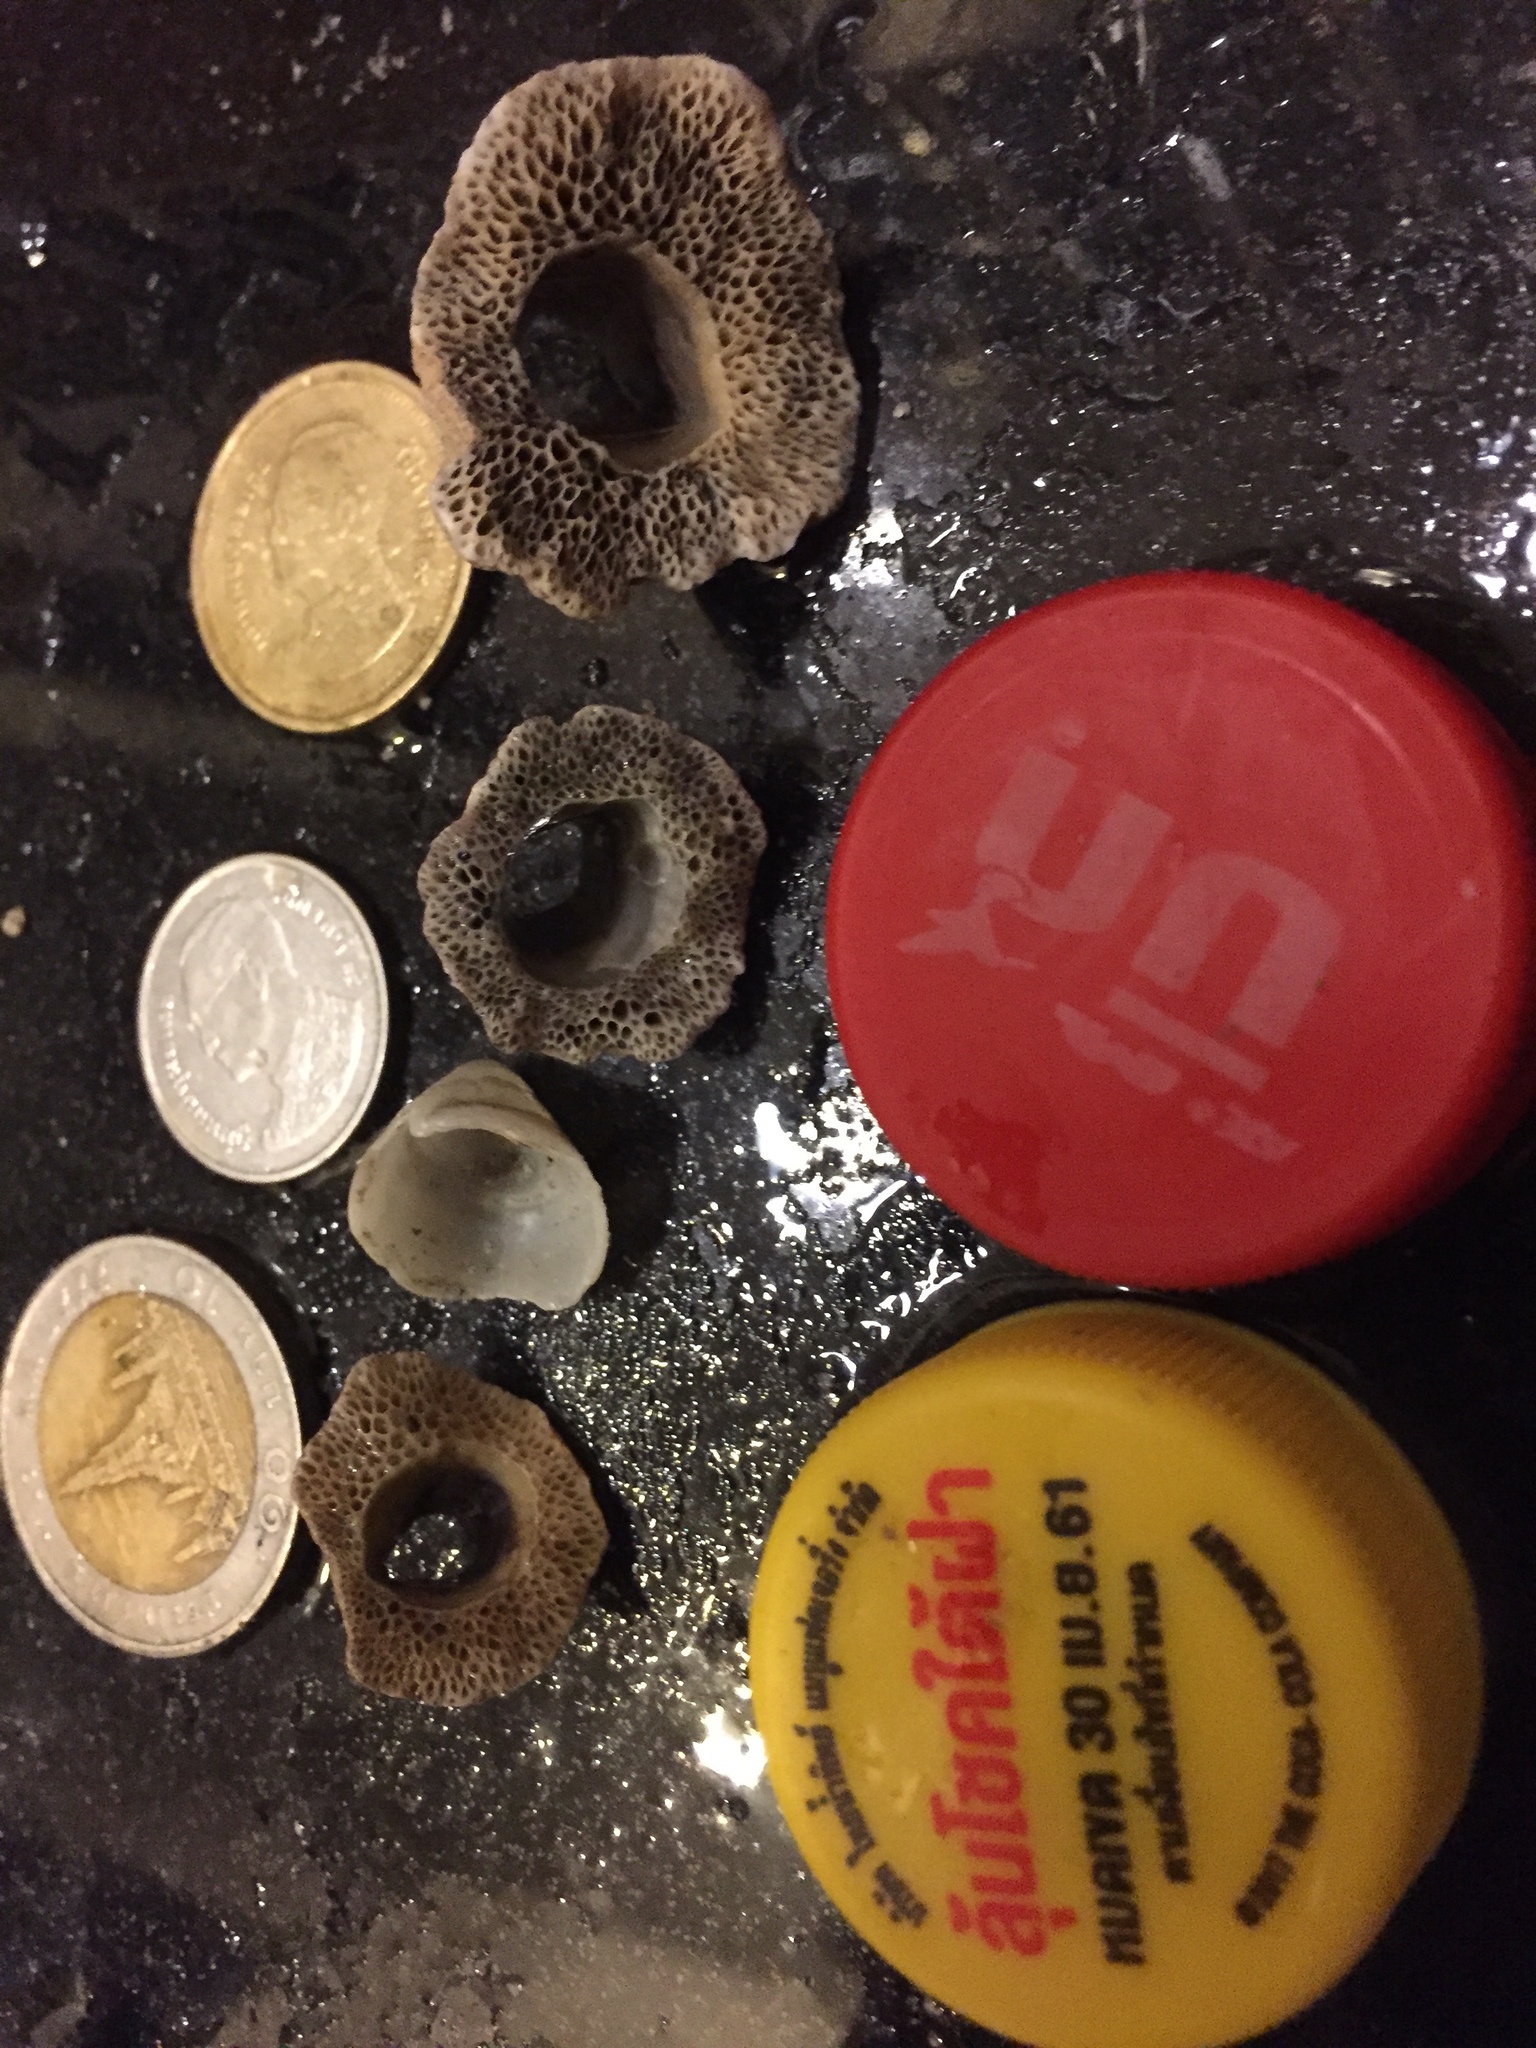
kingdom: Animalia
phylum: Arthropoda
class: Maxillopoda
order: Sessilia
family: Tetraclitidae
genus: Tetraclita
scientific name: Tetraclita japonica
